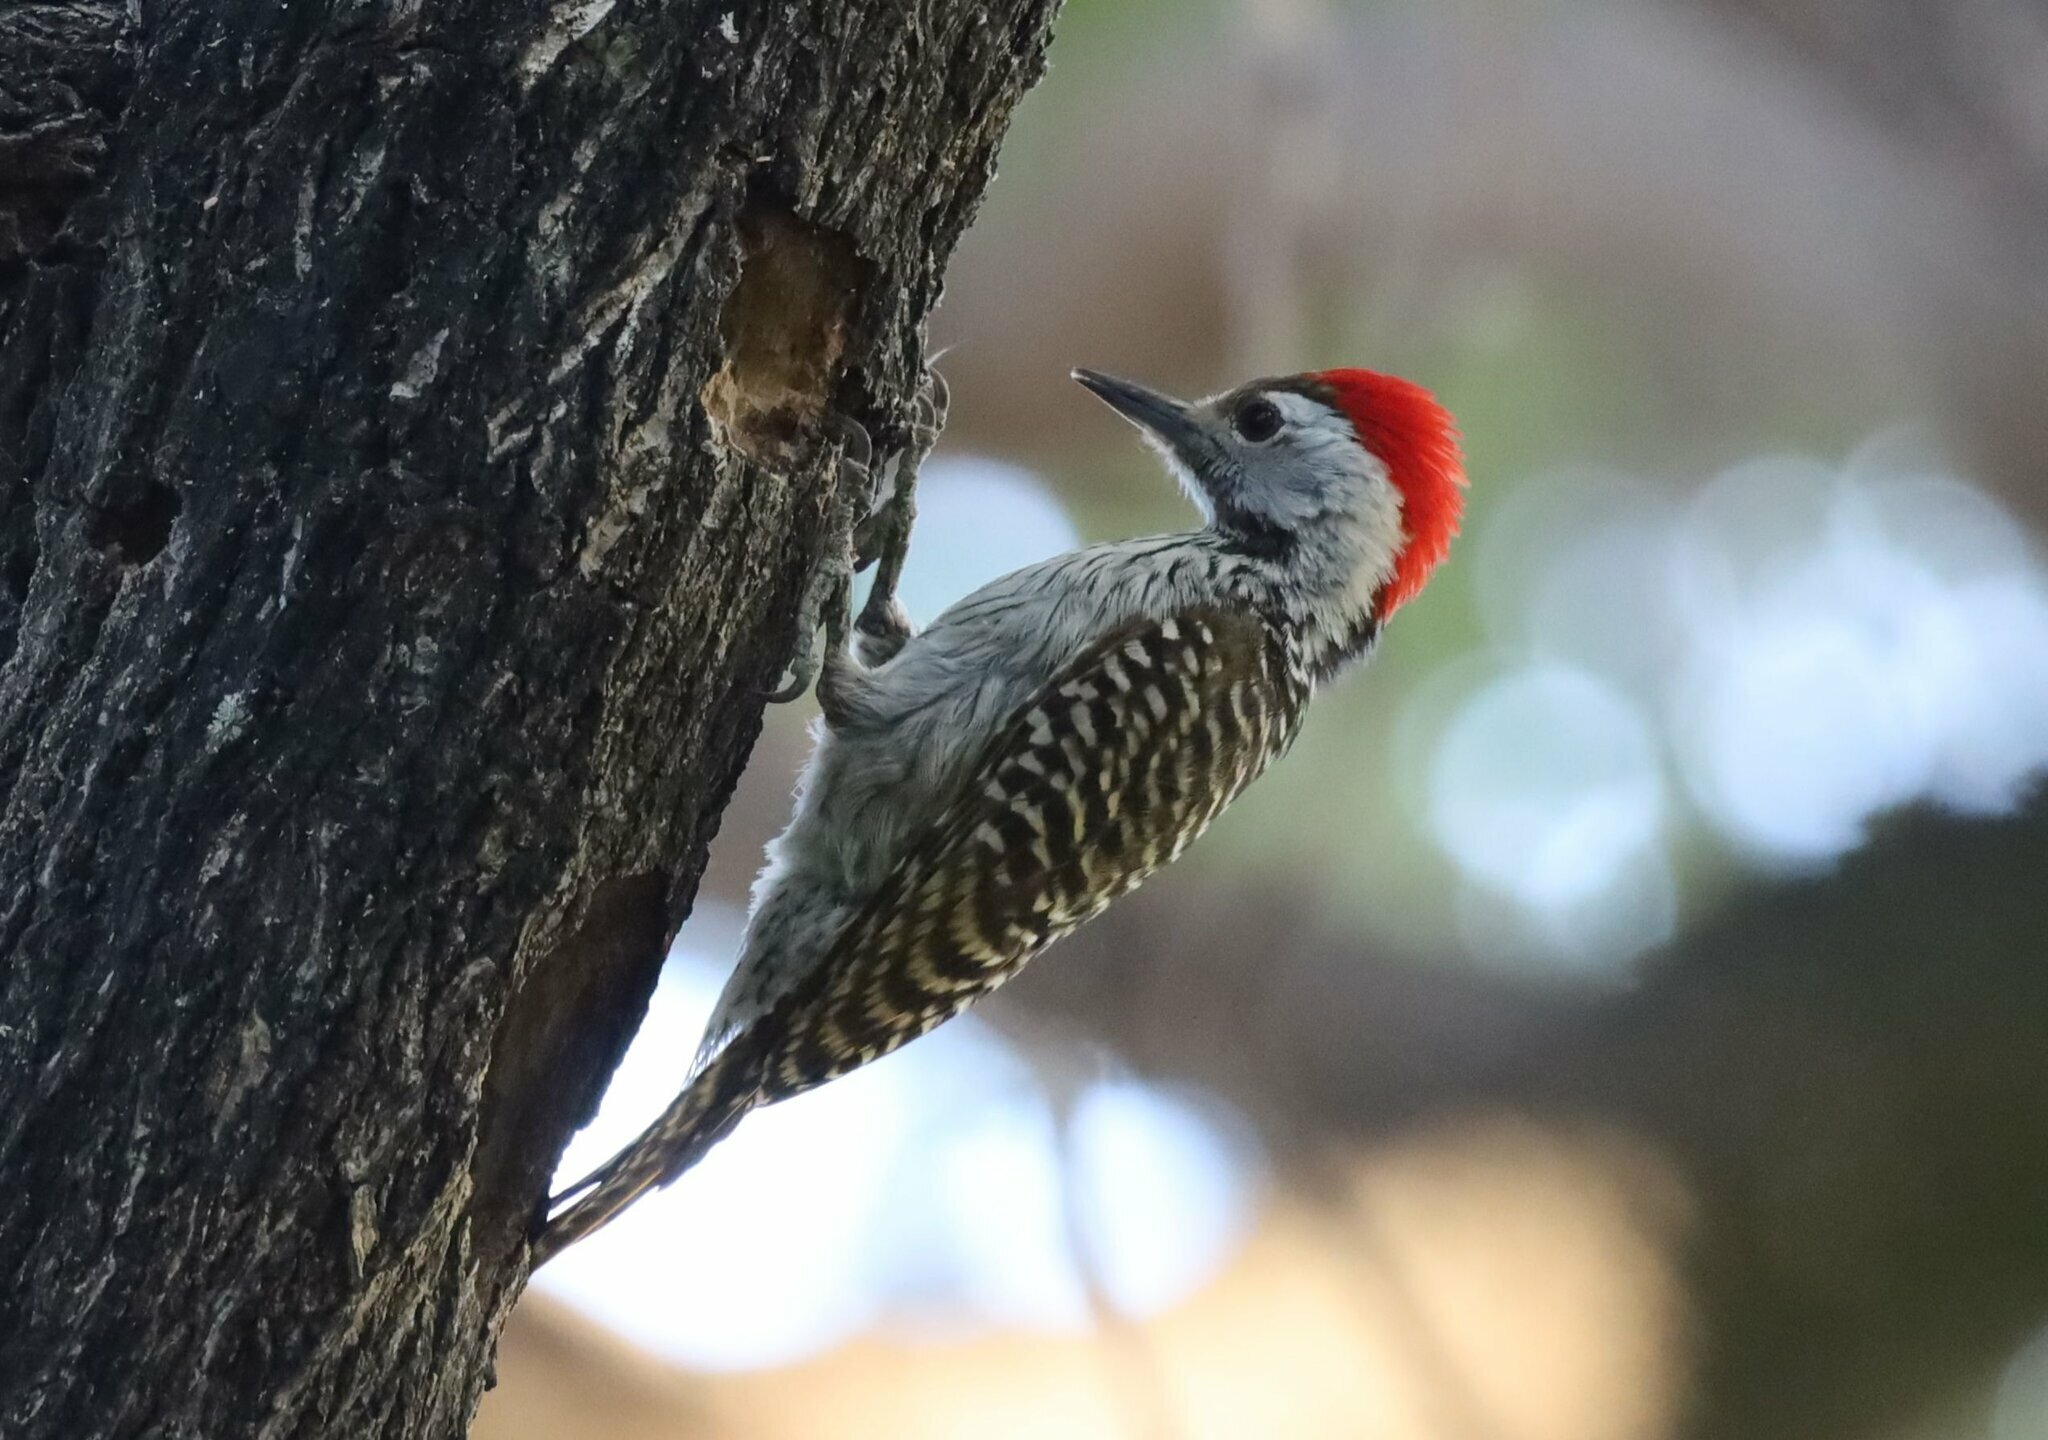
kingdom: Animalia
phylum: Chordata
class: Aves
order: Piciformes
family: Picidae
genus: Dendropicos
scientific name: Dendropicos fuscescens
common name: Cardinal woodpecker
